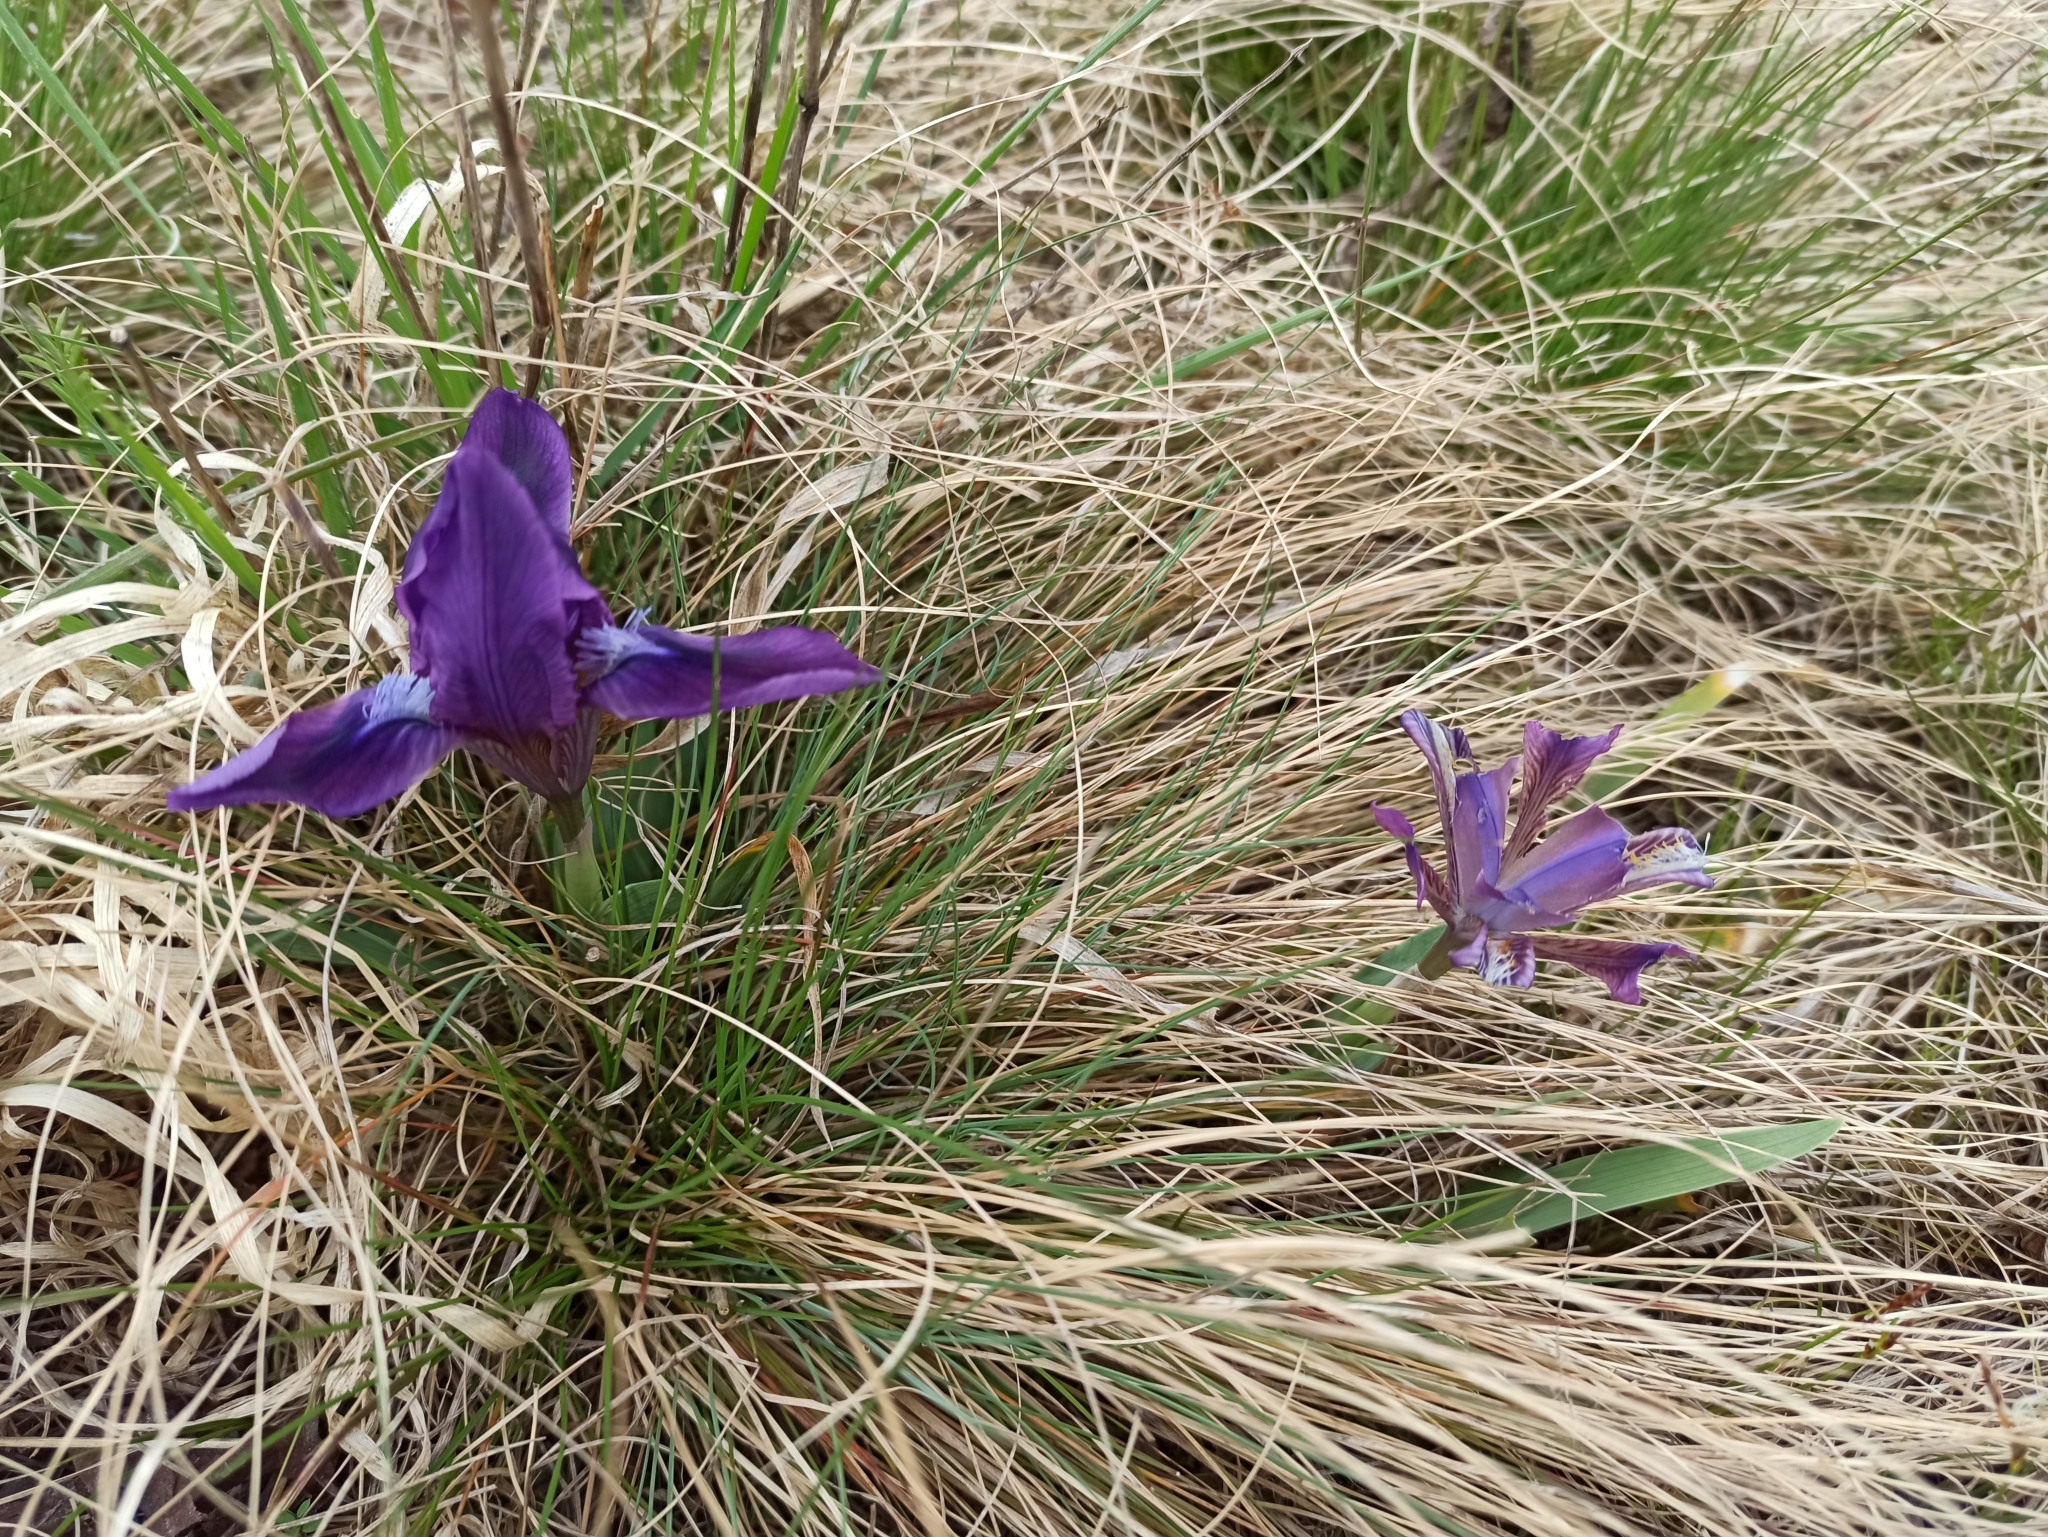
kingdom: Plantae
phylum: Tracheophyta
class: Liliopsida
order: Asparagales
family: Iridaceae
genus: Iris
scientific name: Iris pumila
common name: Dwarf iris
